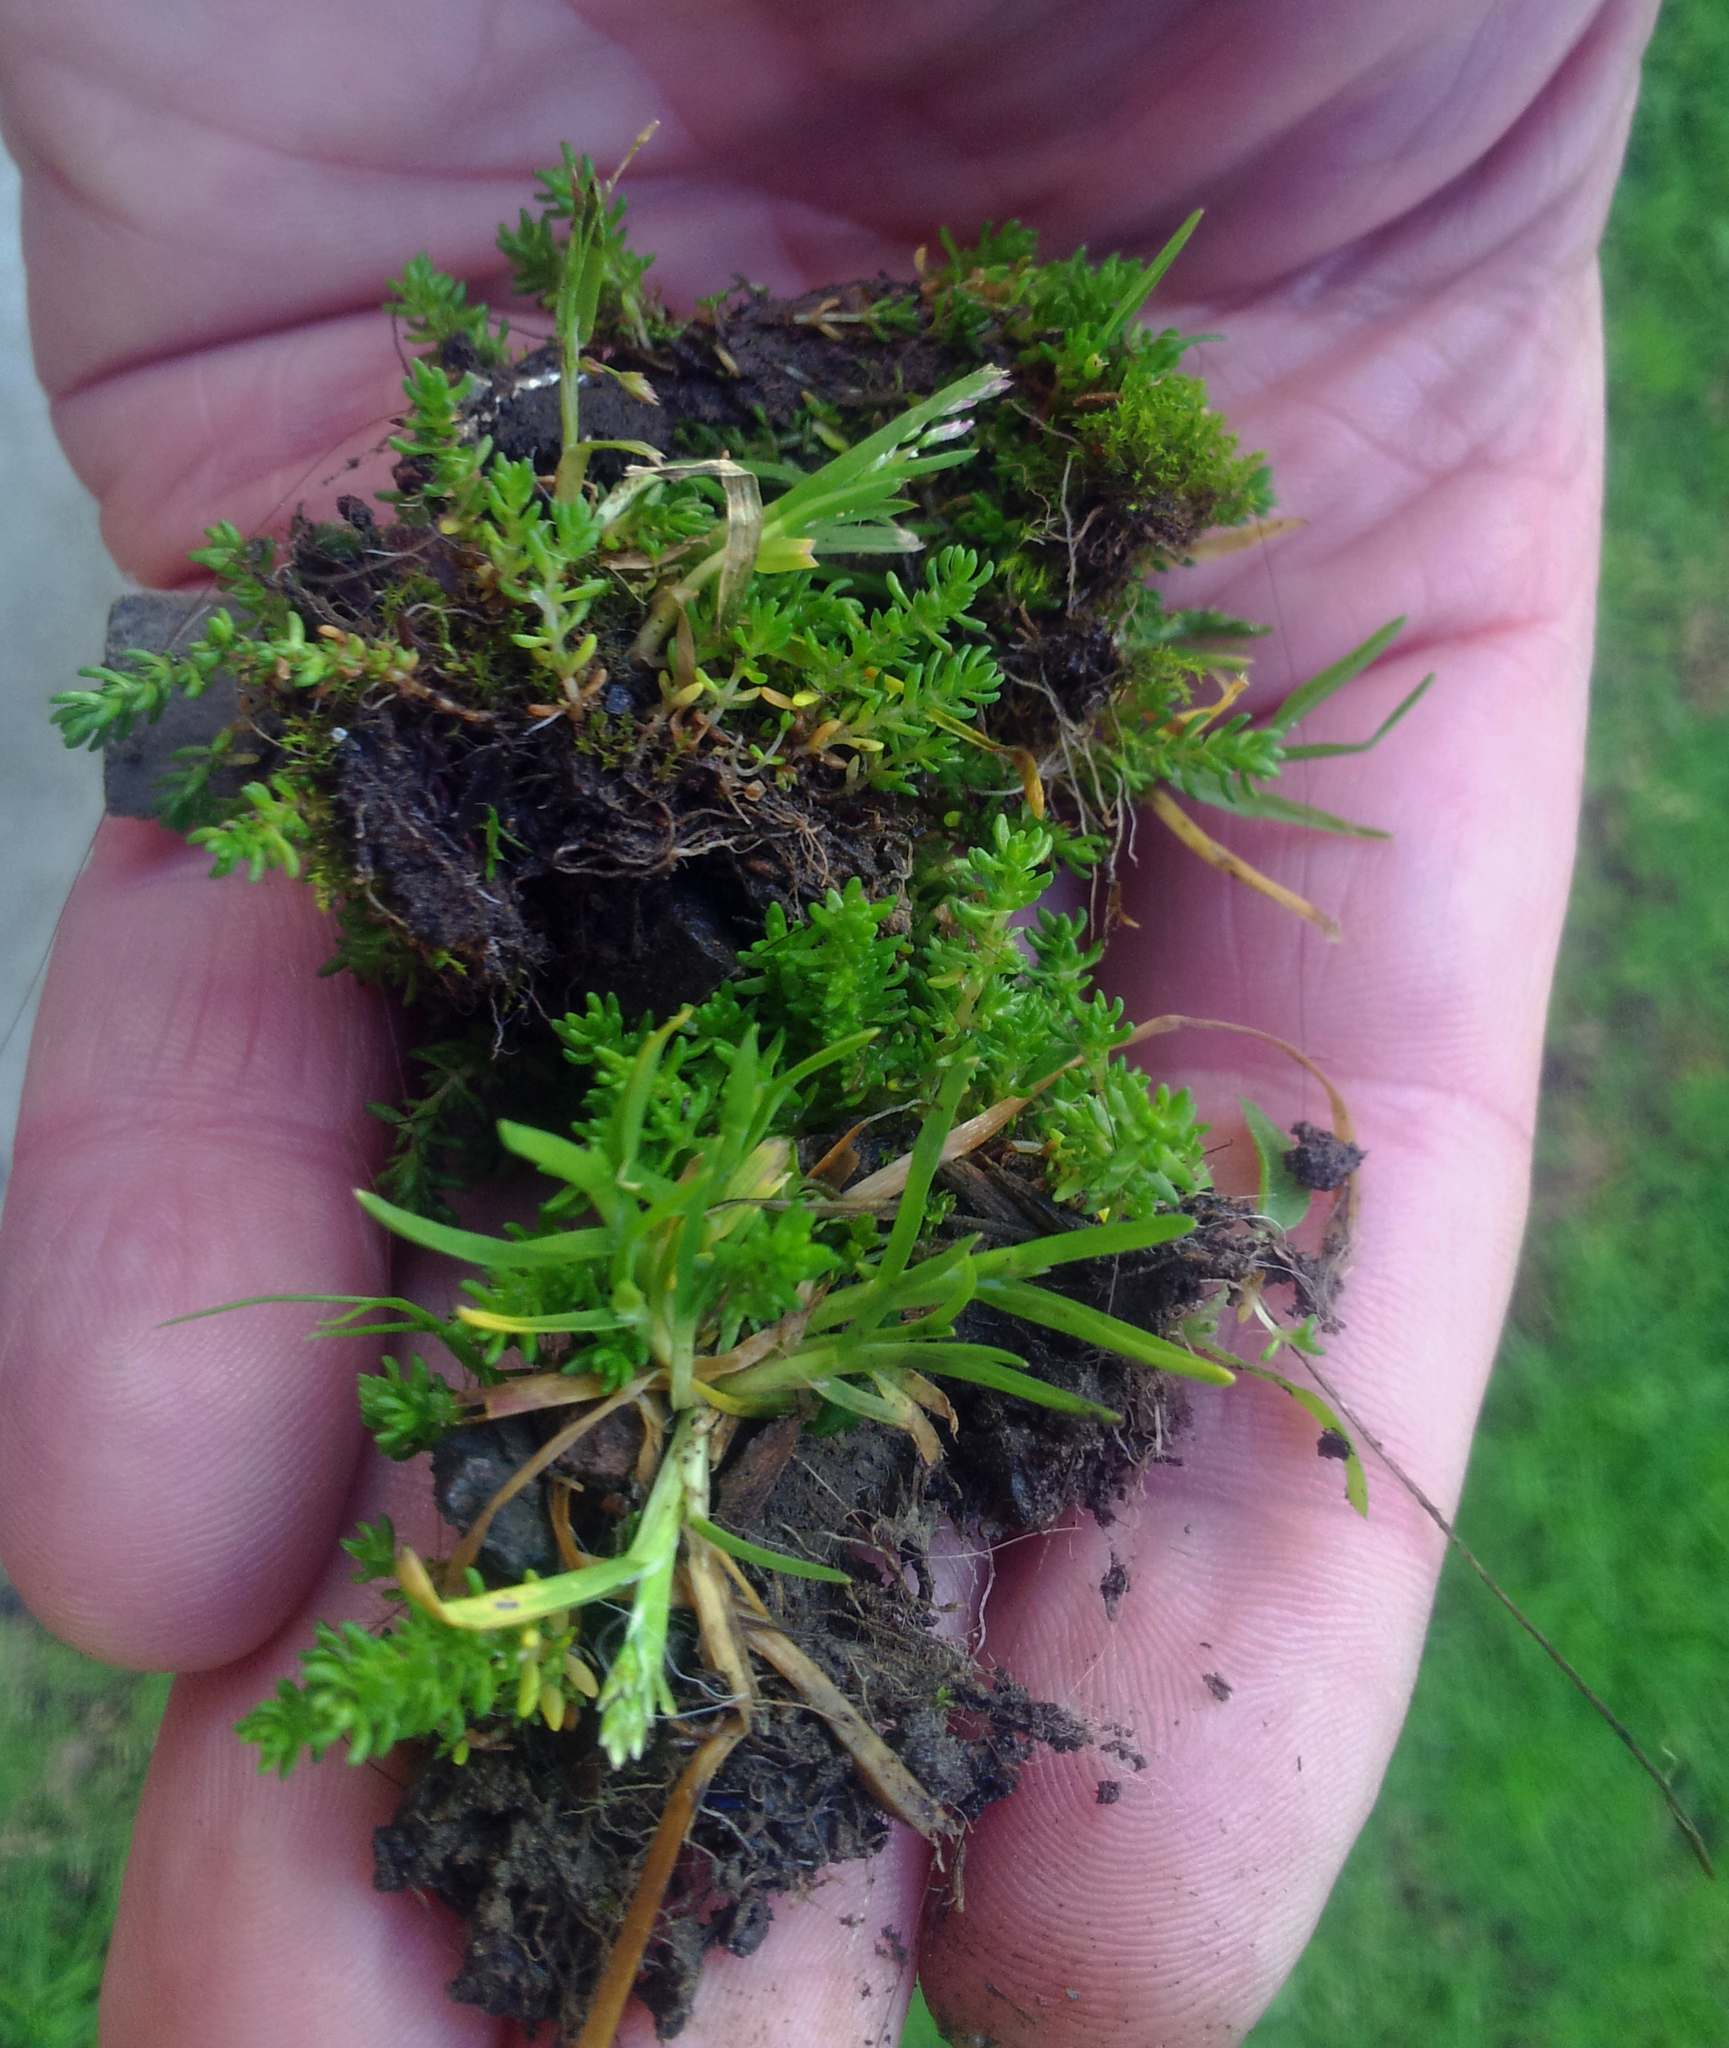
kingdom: Plantae
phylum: Tracheophyta
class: Magnoliopsida
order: Saxifragales
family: Crassulaceae
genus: Crassula
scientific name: Crassula alata
